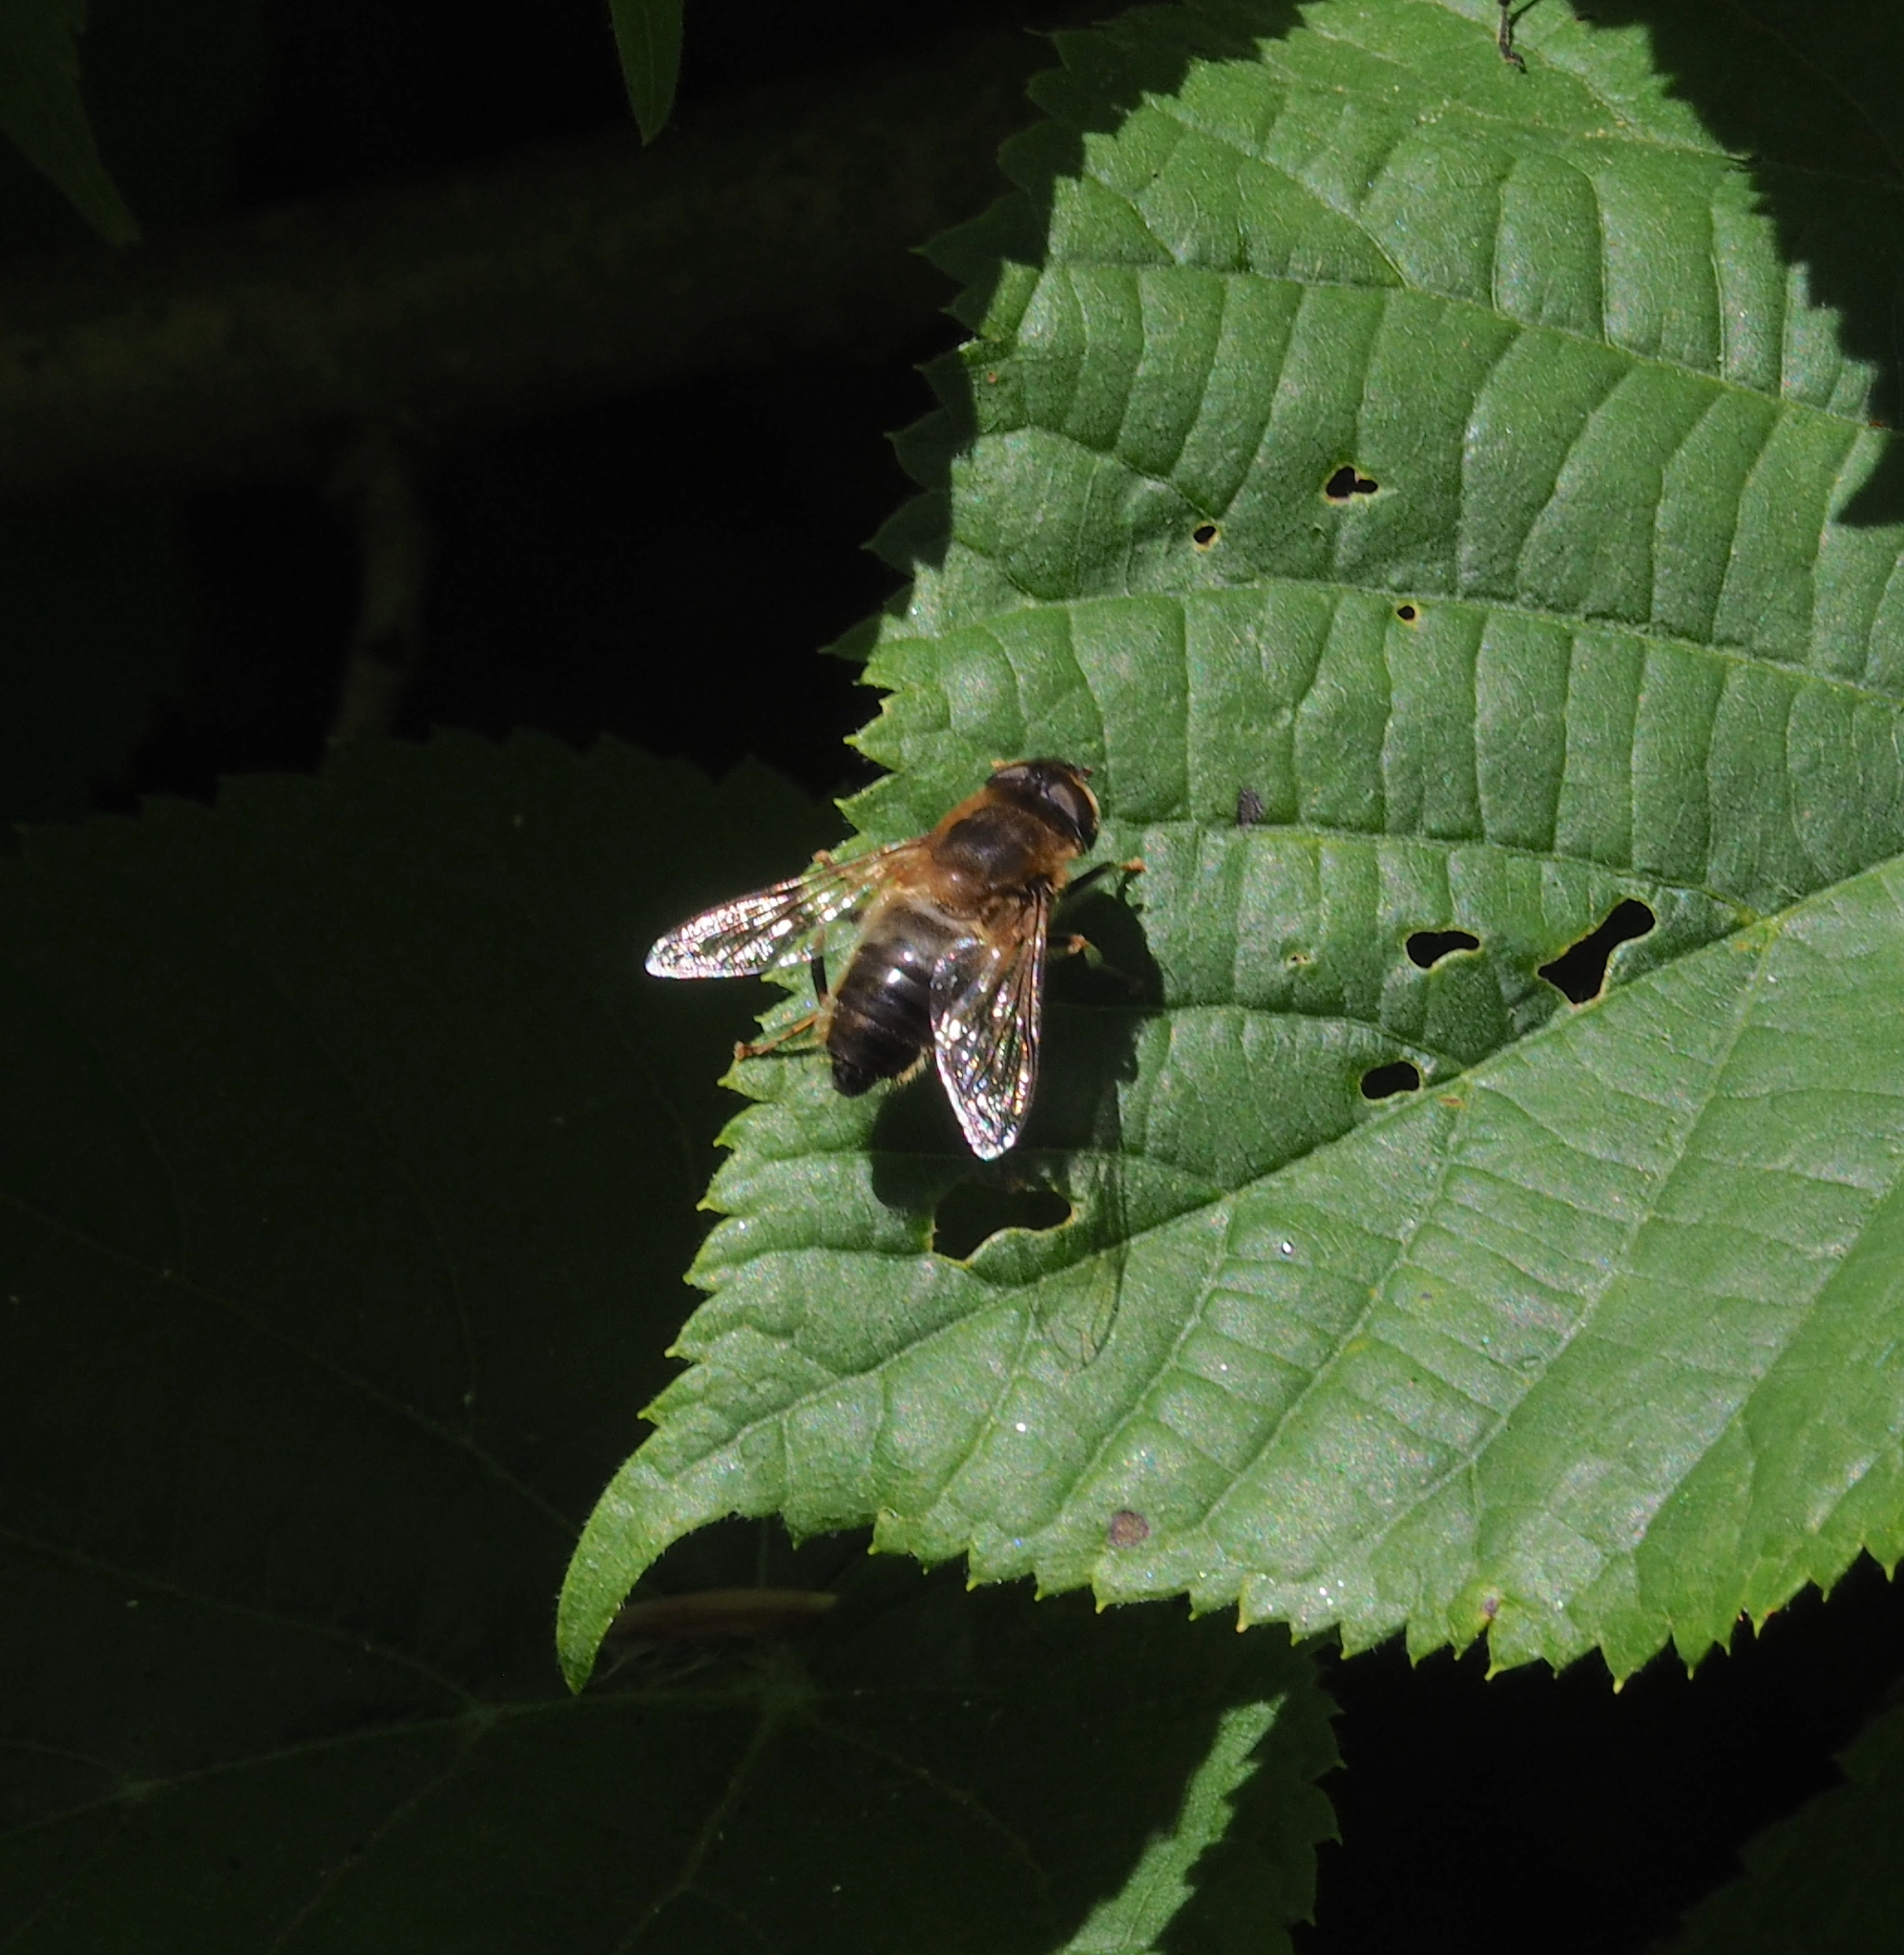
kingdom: Animalia
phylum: Arthropoda
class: Insecta
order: Diptera
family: Syrphidae
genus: Eristalis
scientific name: Eristalis pertinax
